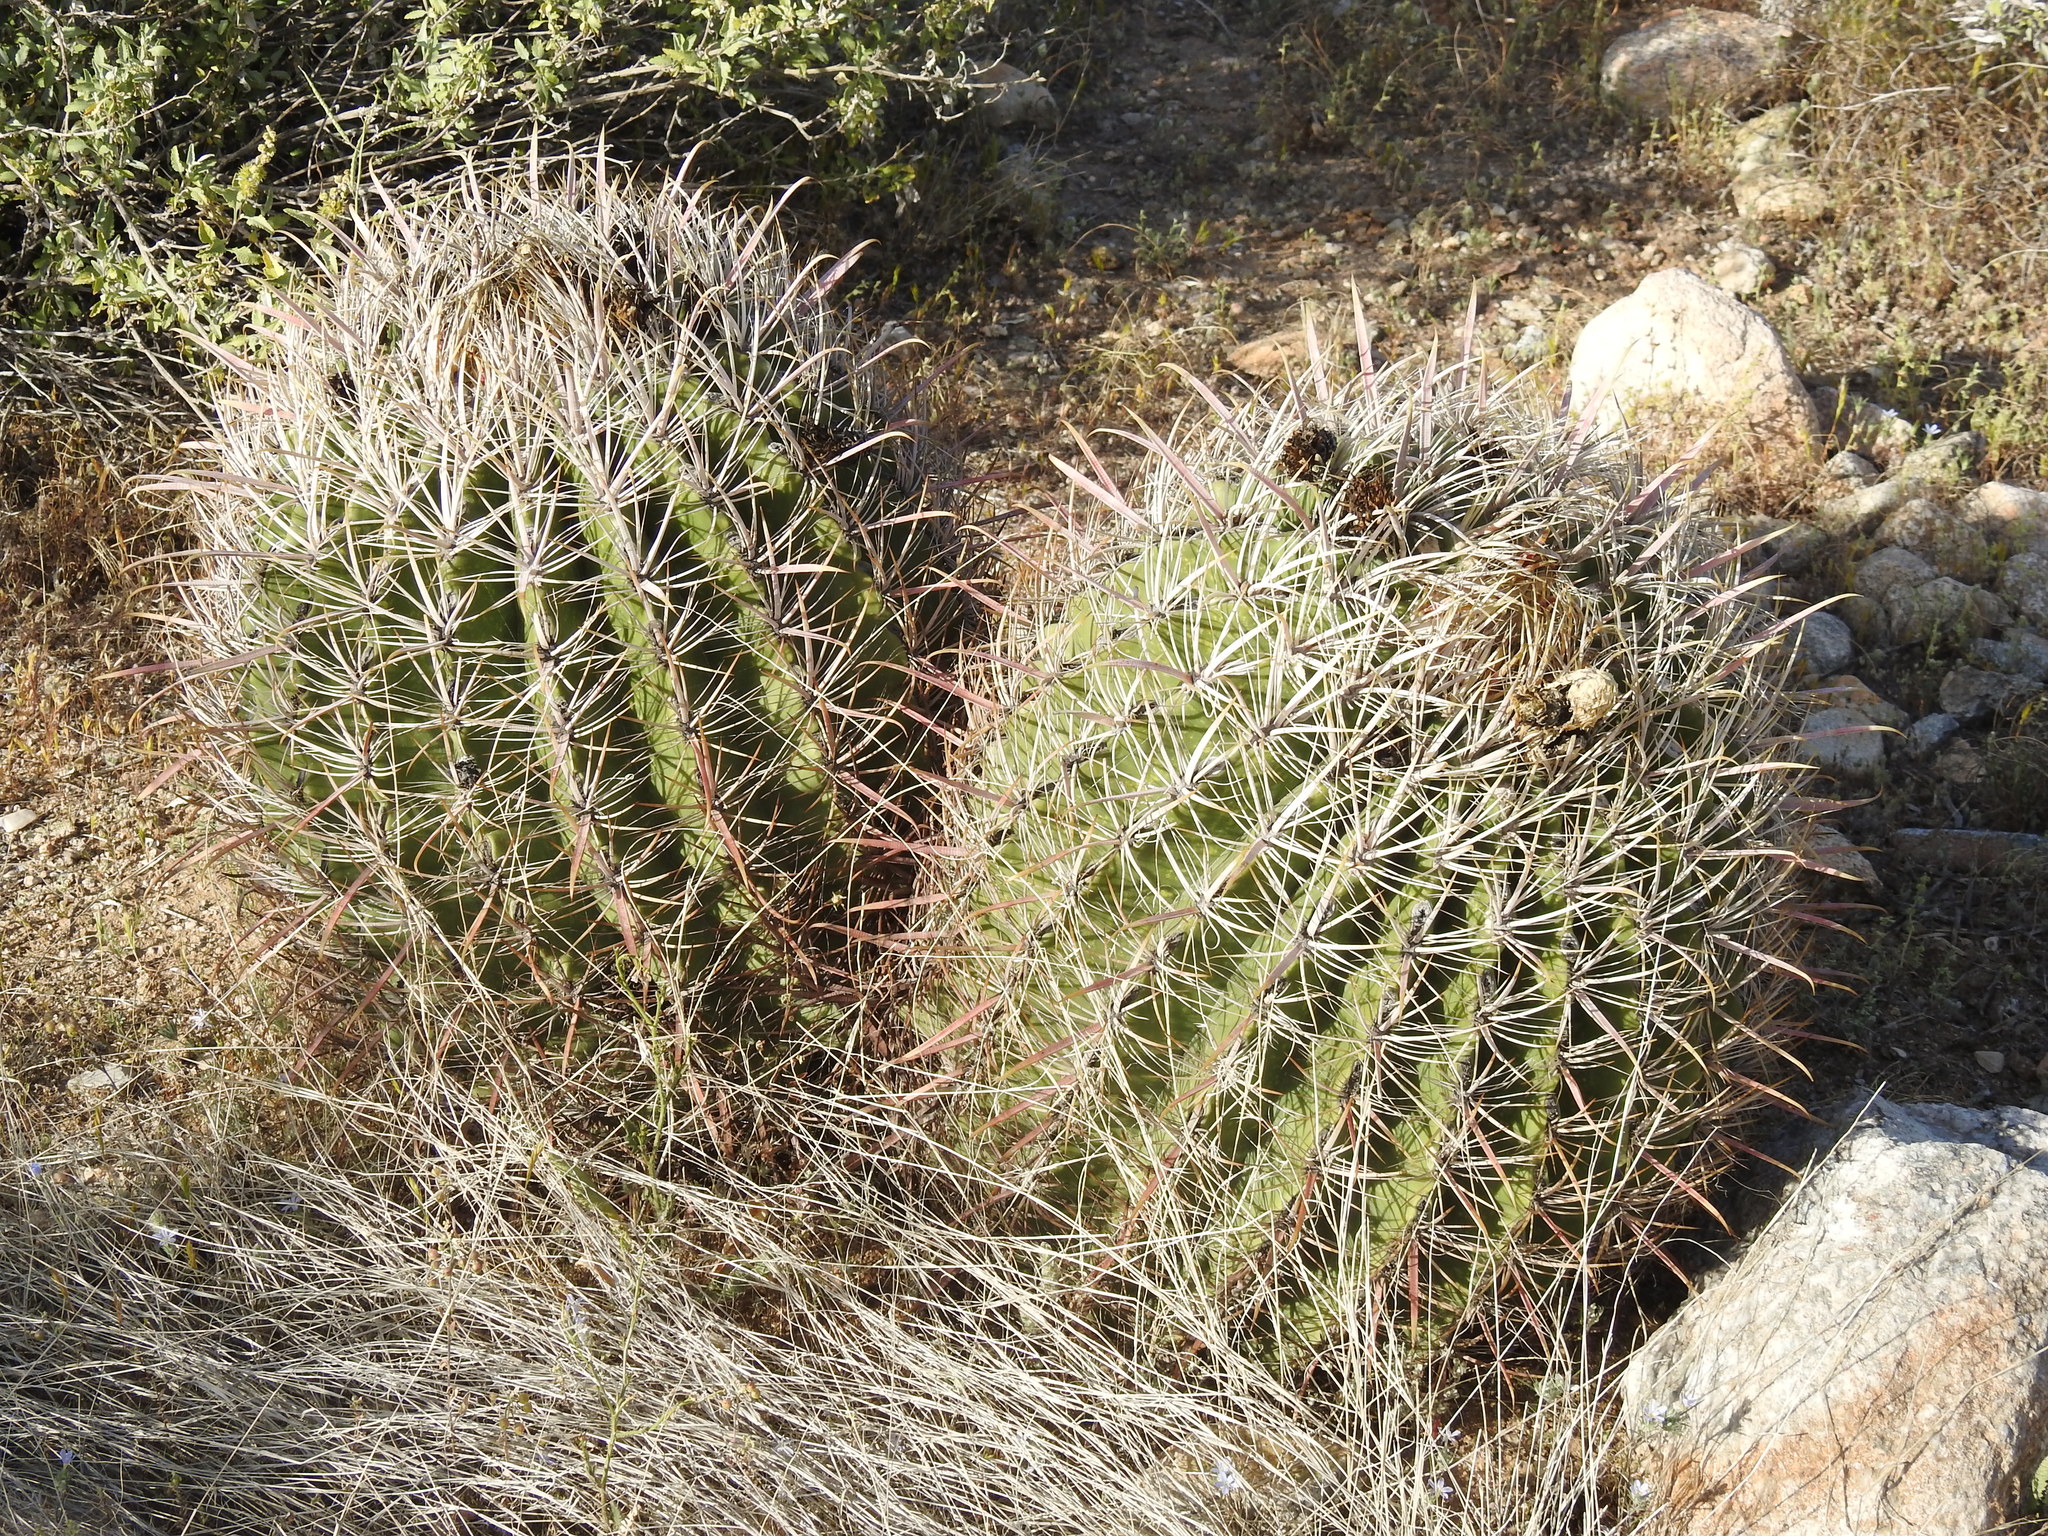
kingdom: Plantae
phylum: Tracheophyta
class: Magnoliopsida
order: Caryophyllales
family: Cactaceae
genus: Ferocactus
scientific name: Ferocactus cylindraceus
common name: California barrel cactus
